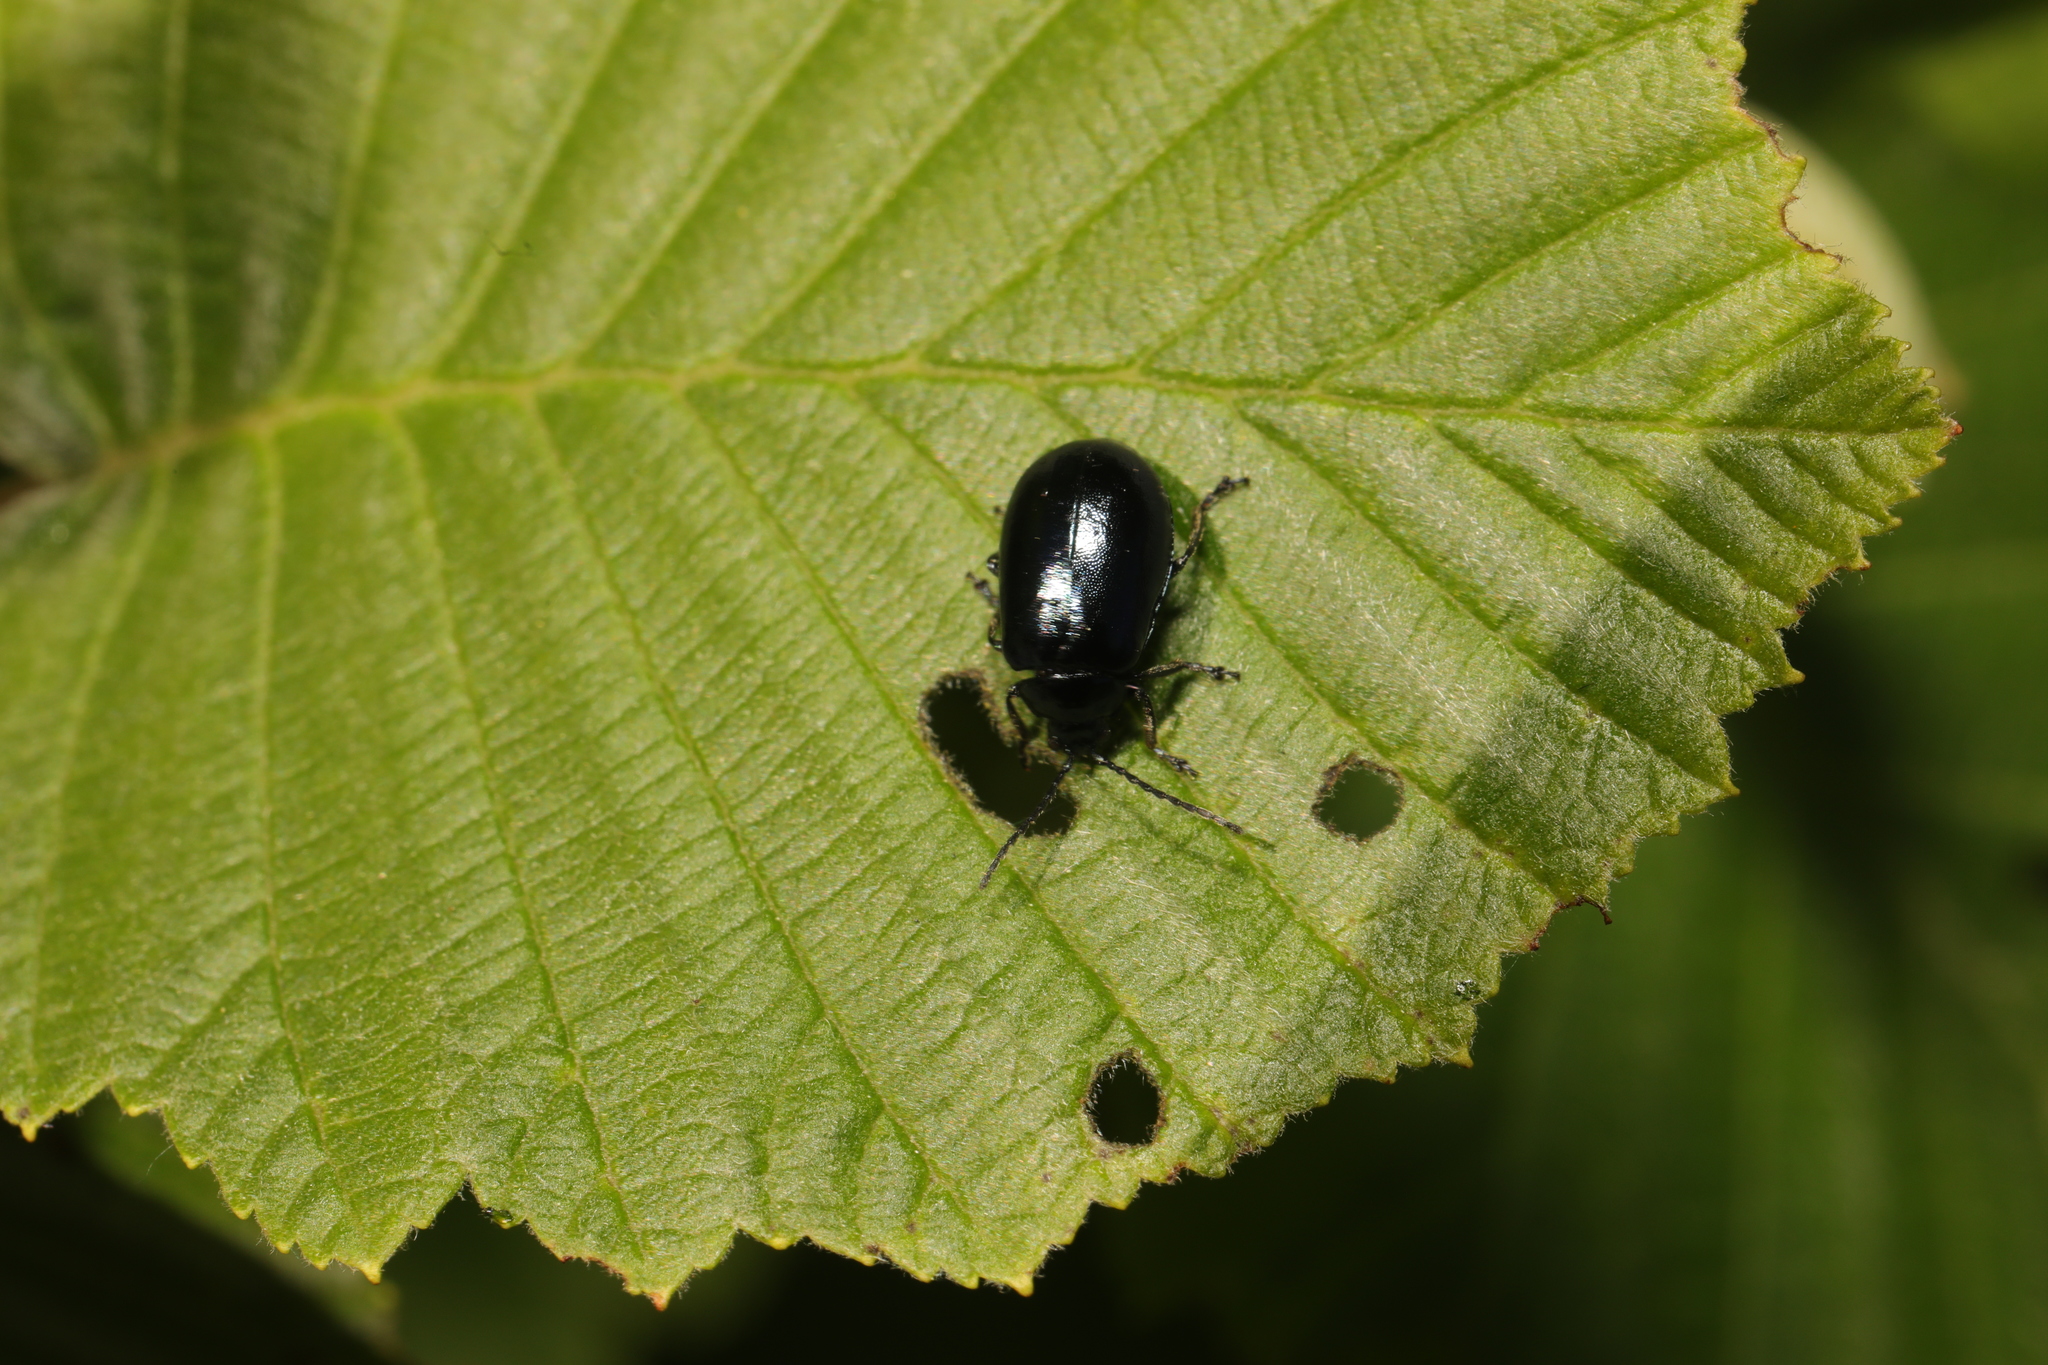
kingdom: Animalia
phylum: Arthropoda
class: Insecta
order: Coleoptera
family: Chrysomelidae
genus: Agelastica
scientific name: Agelastica alni
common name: Alder leaf beetle
